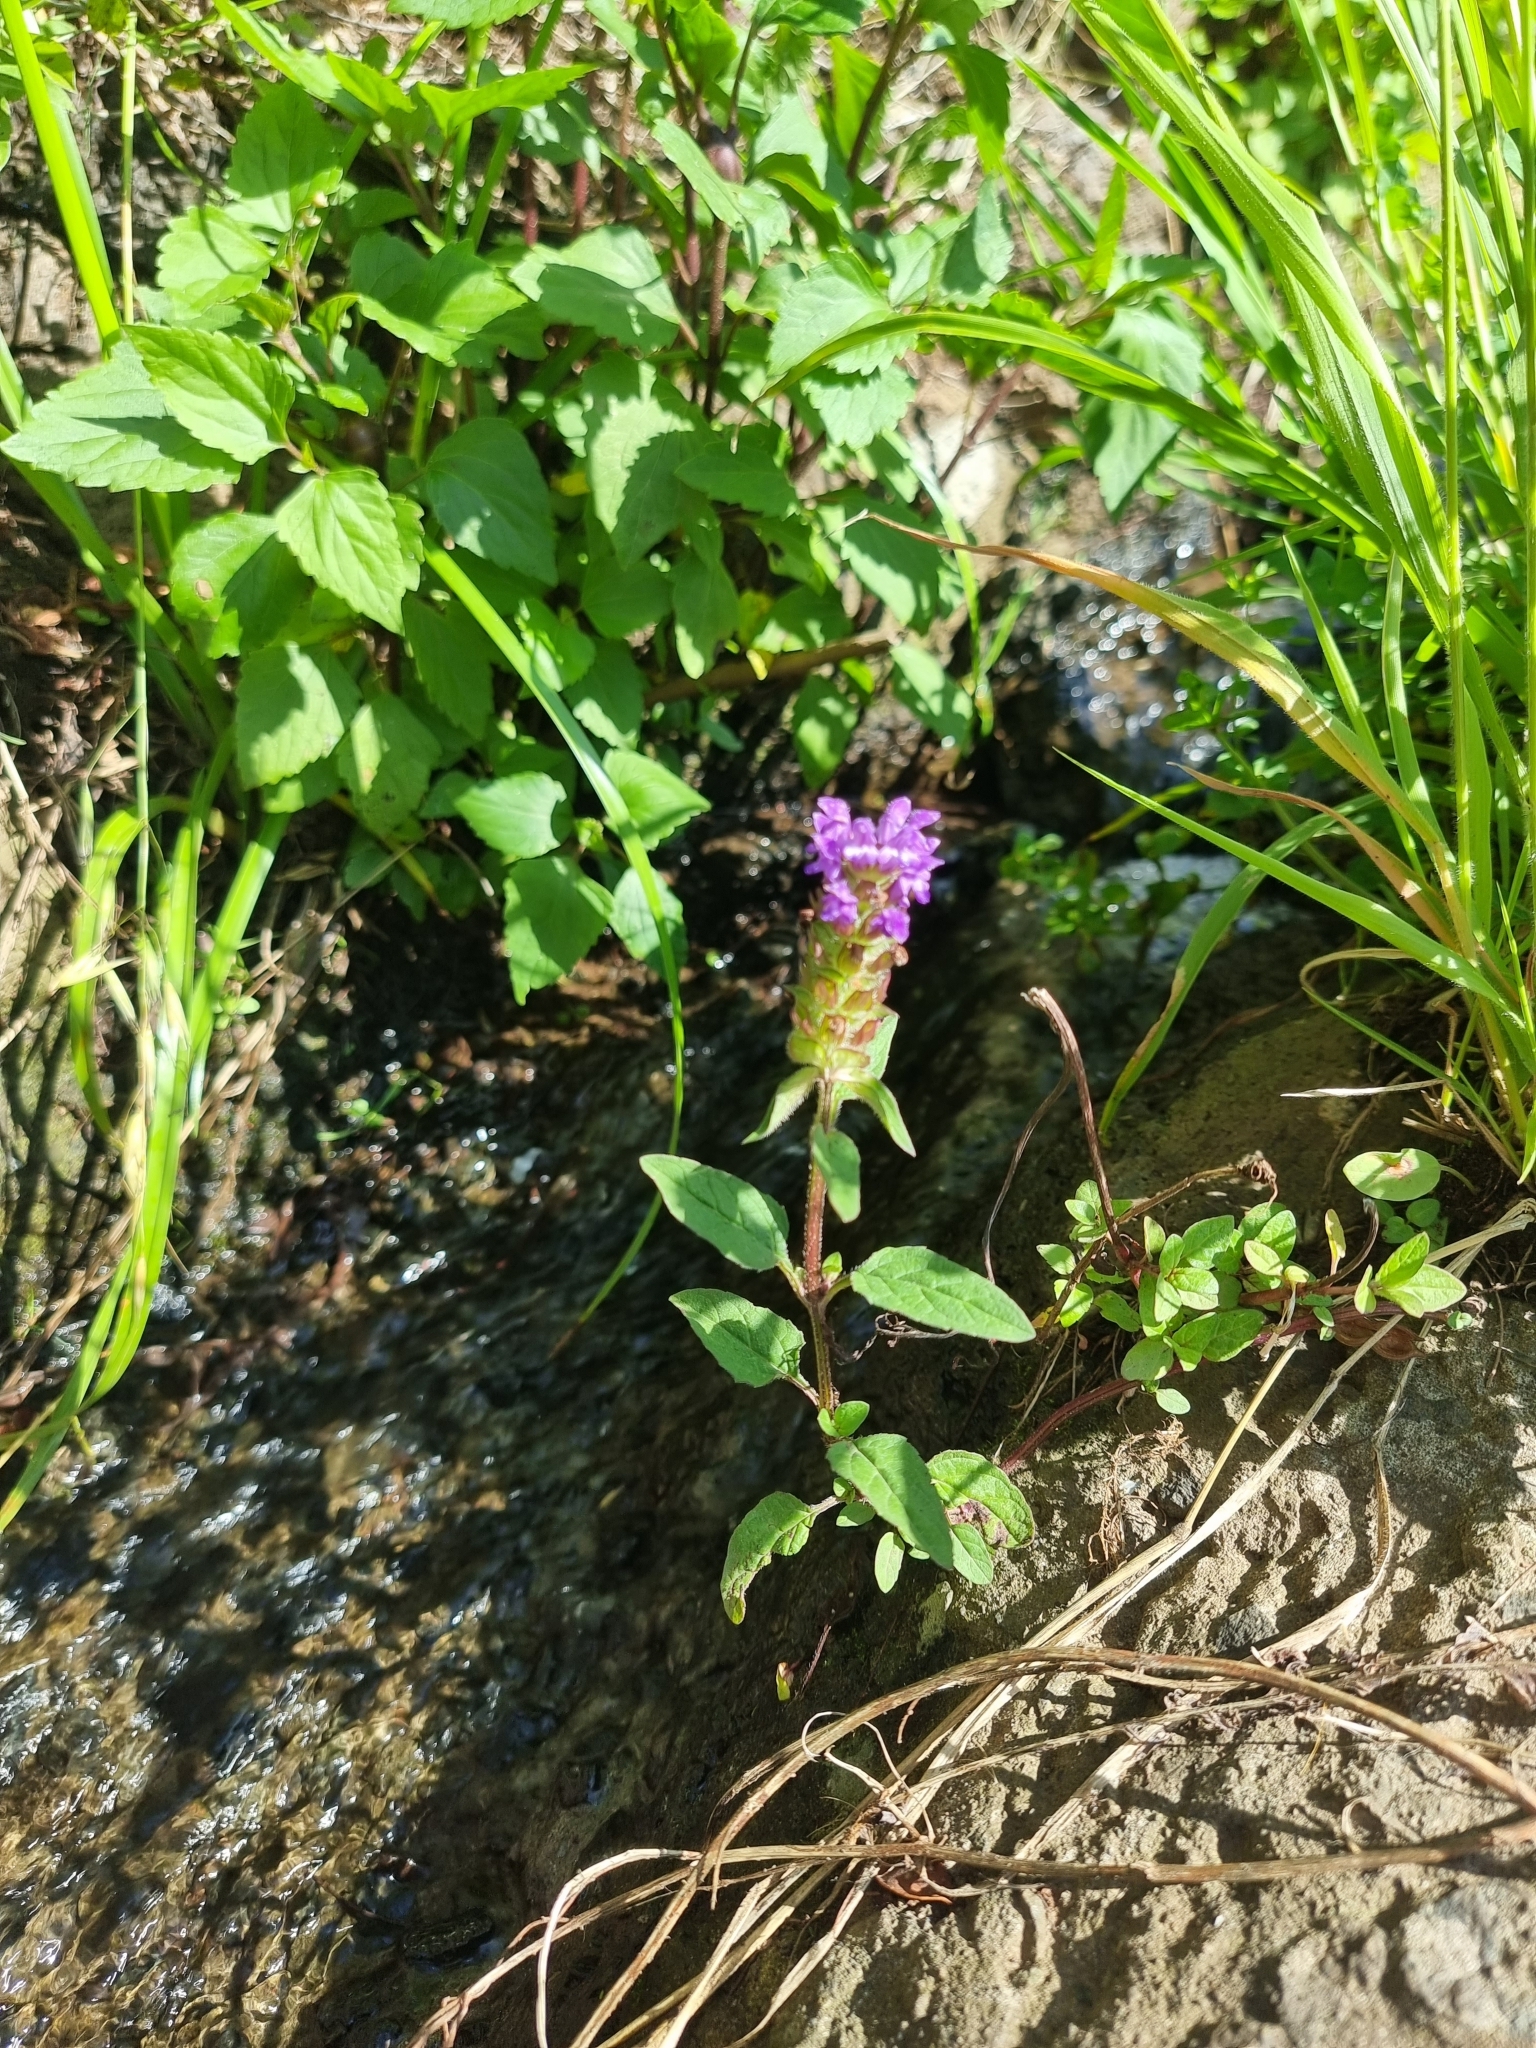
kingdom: Plantae
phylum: Tracheophyta
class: Magnoliopsida
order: Lamiales
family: Lamiaceae
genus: Prunella
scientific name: Prunella vulgaris
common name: Heal-all
